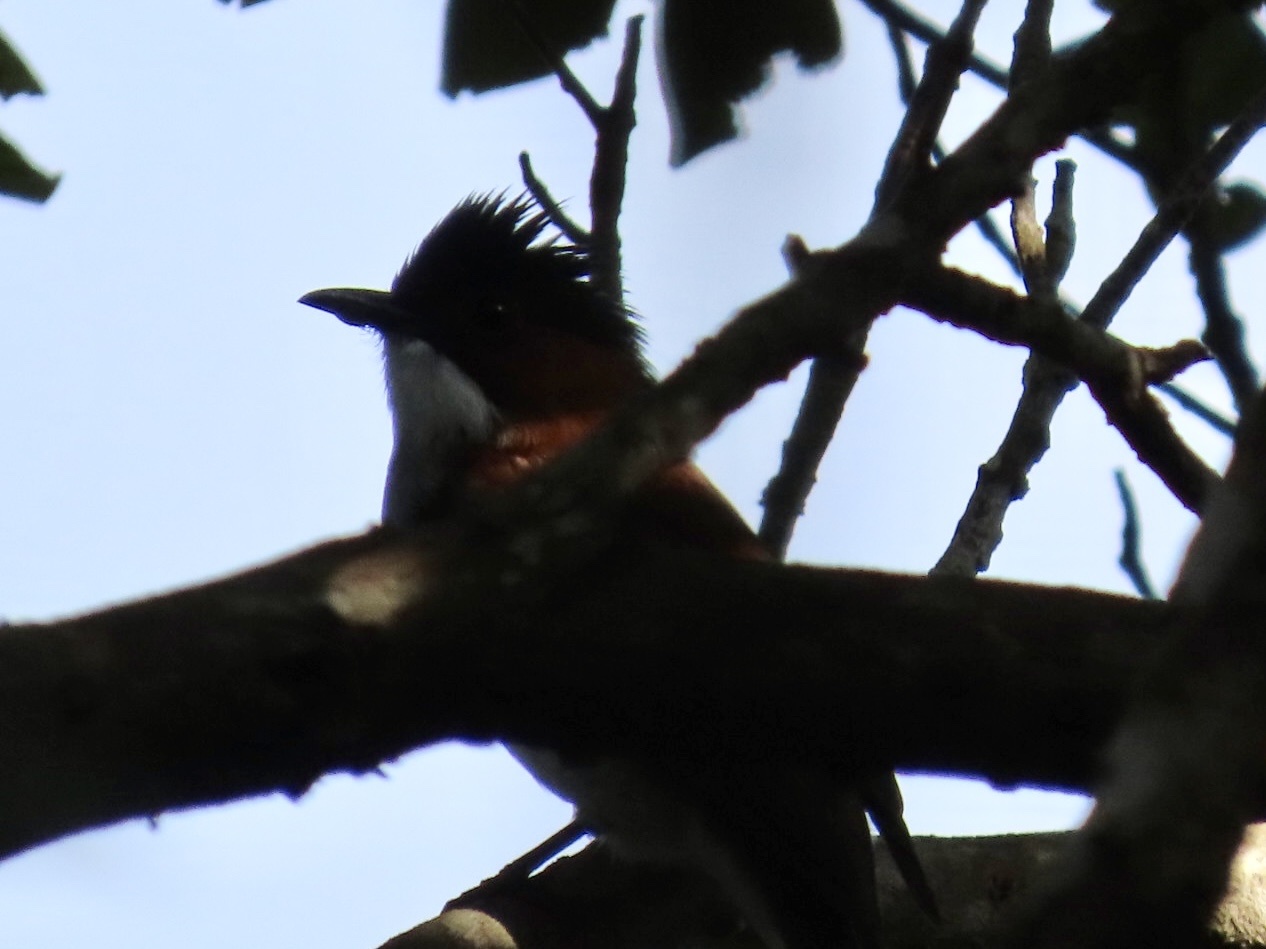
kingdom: Animalia
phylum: Chordata
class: Aves
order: Passeriformes
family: Pycnonotidae
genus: Hemixos
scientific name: Hemixos castanonotus
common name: Chestnut bulbul
